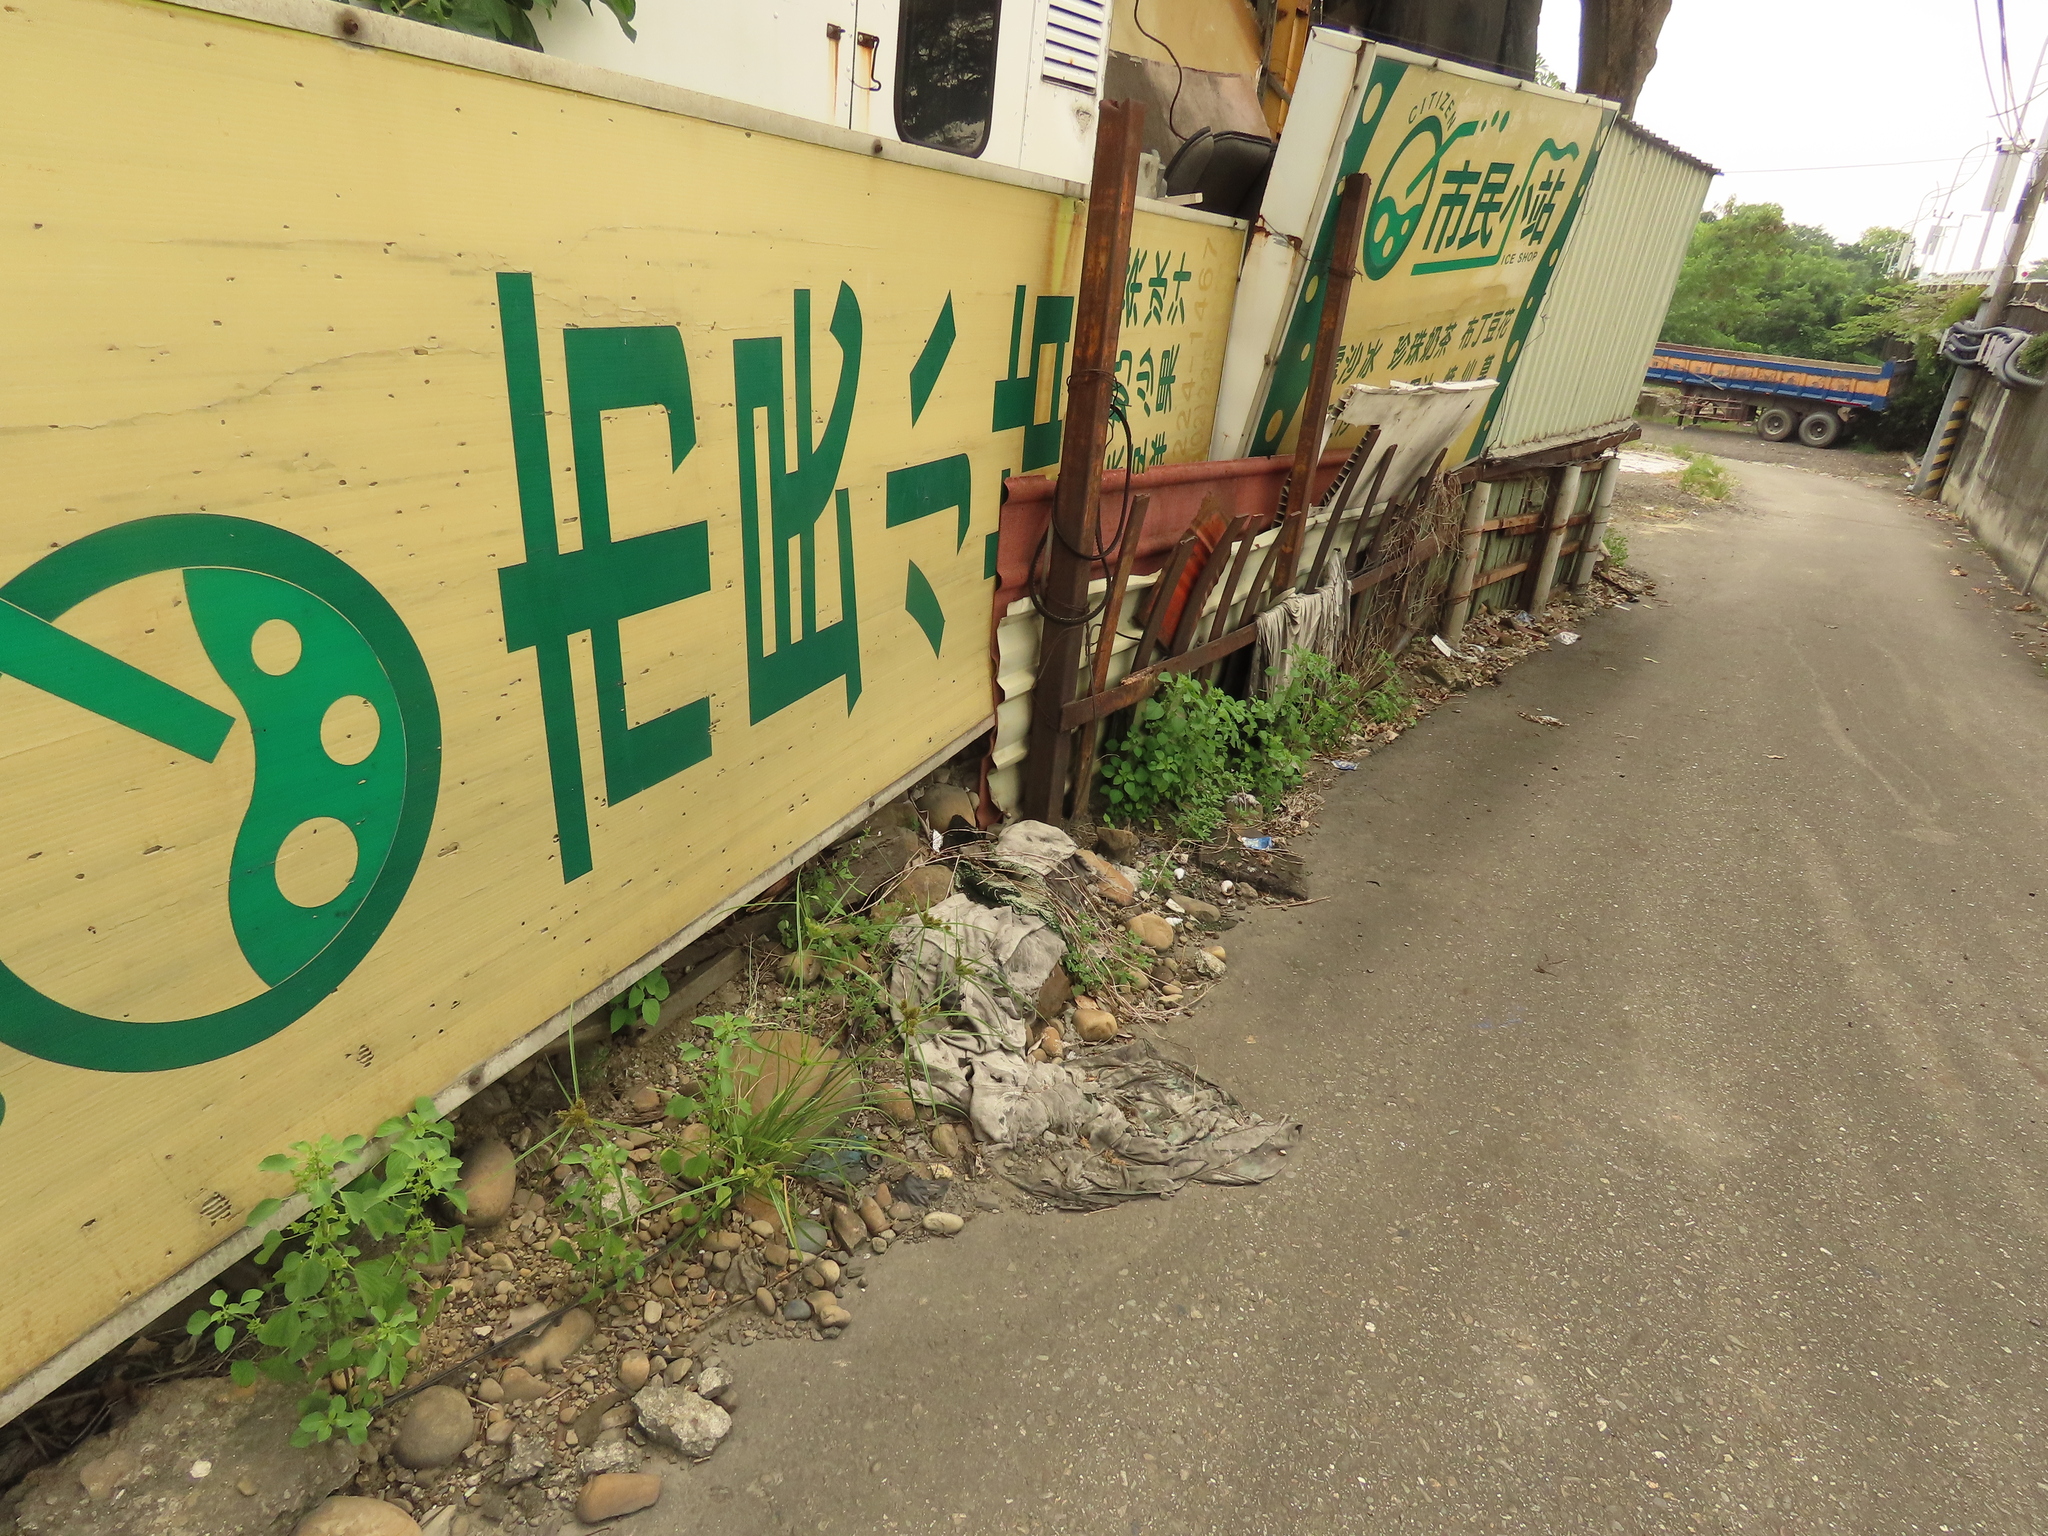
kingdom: Plantae
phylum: Tracheophyta
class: Liliopsida
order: Poales
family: Cyperaceae
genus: Cyperus
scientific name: Cyperus cyperoides
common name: Pacific island flat sedge
